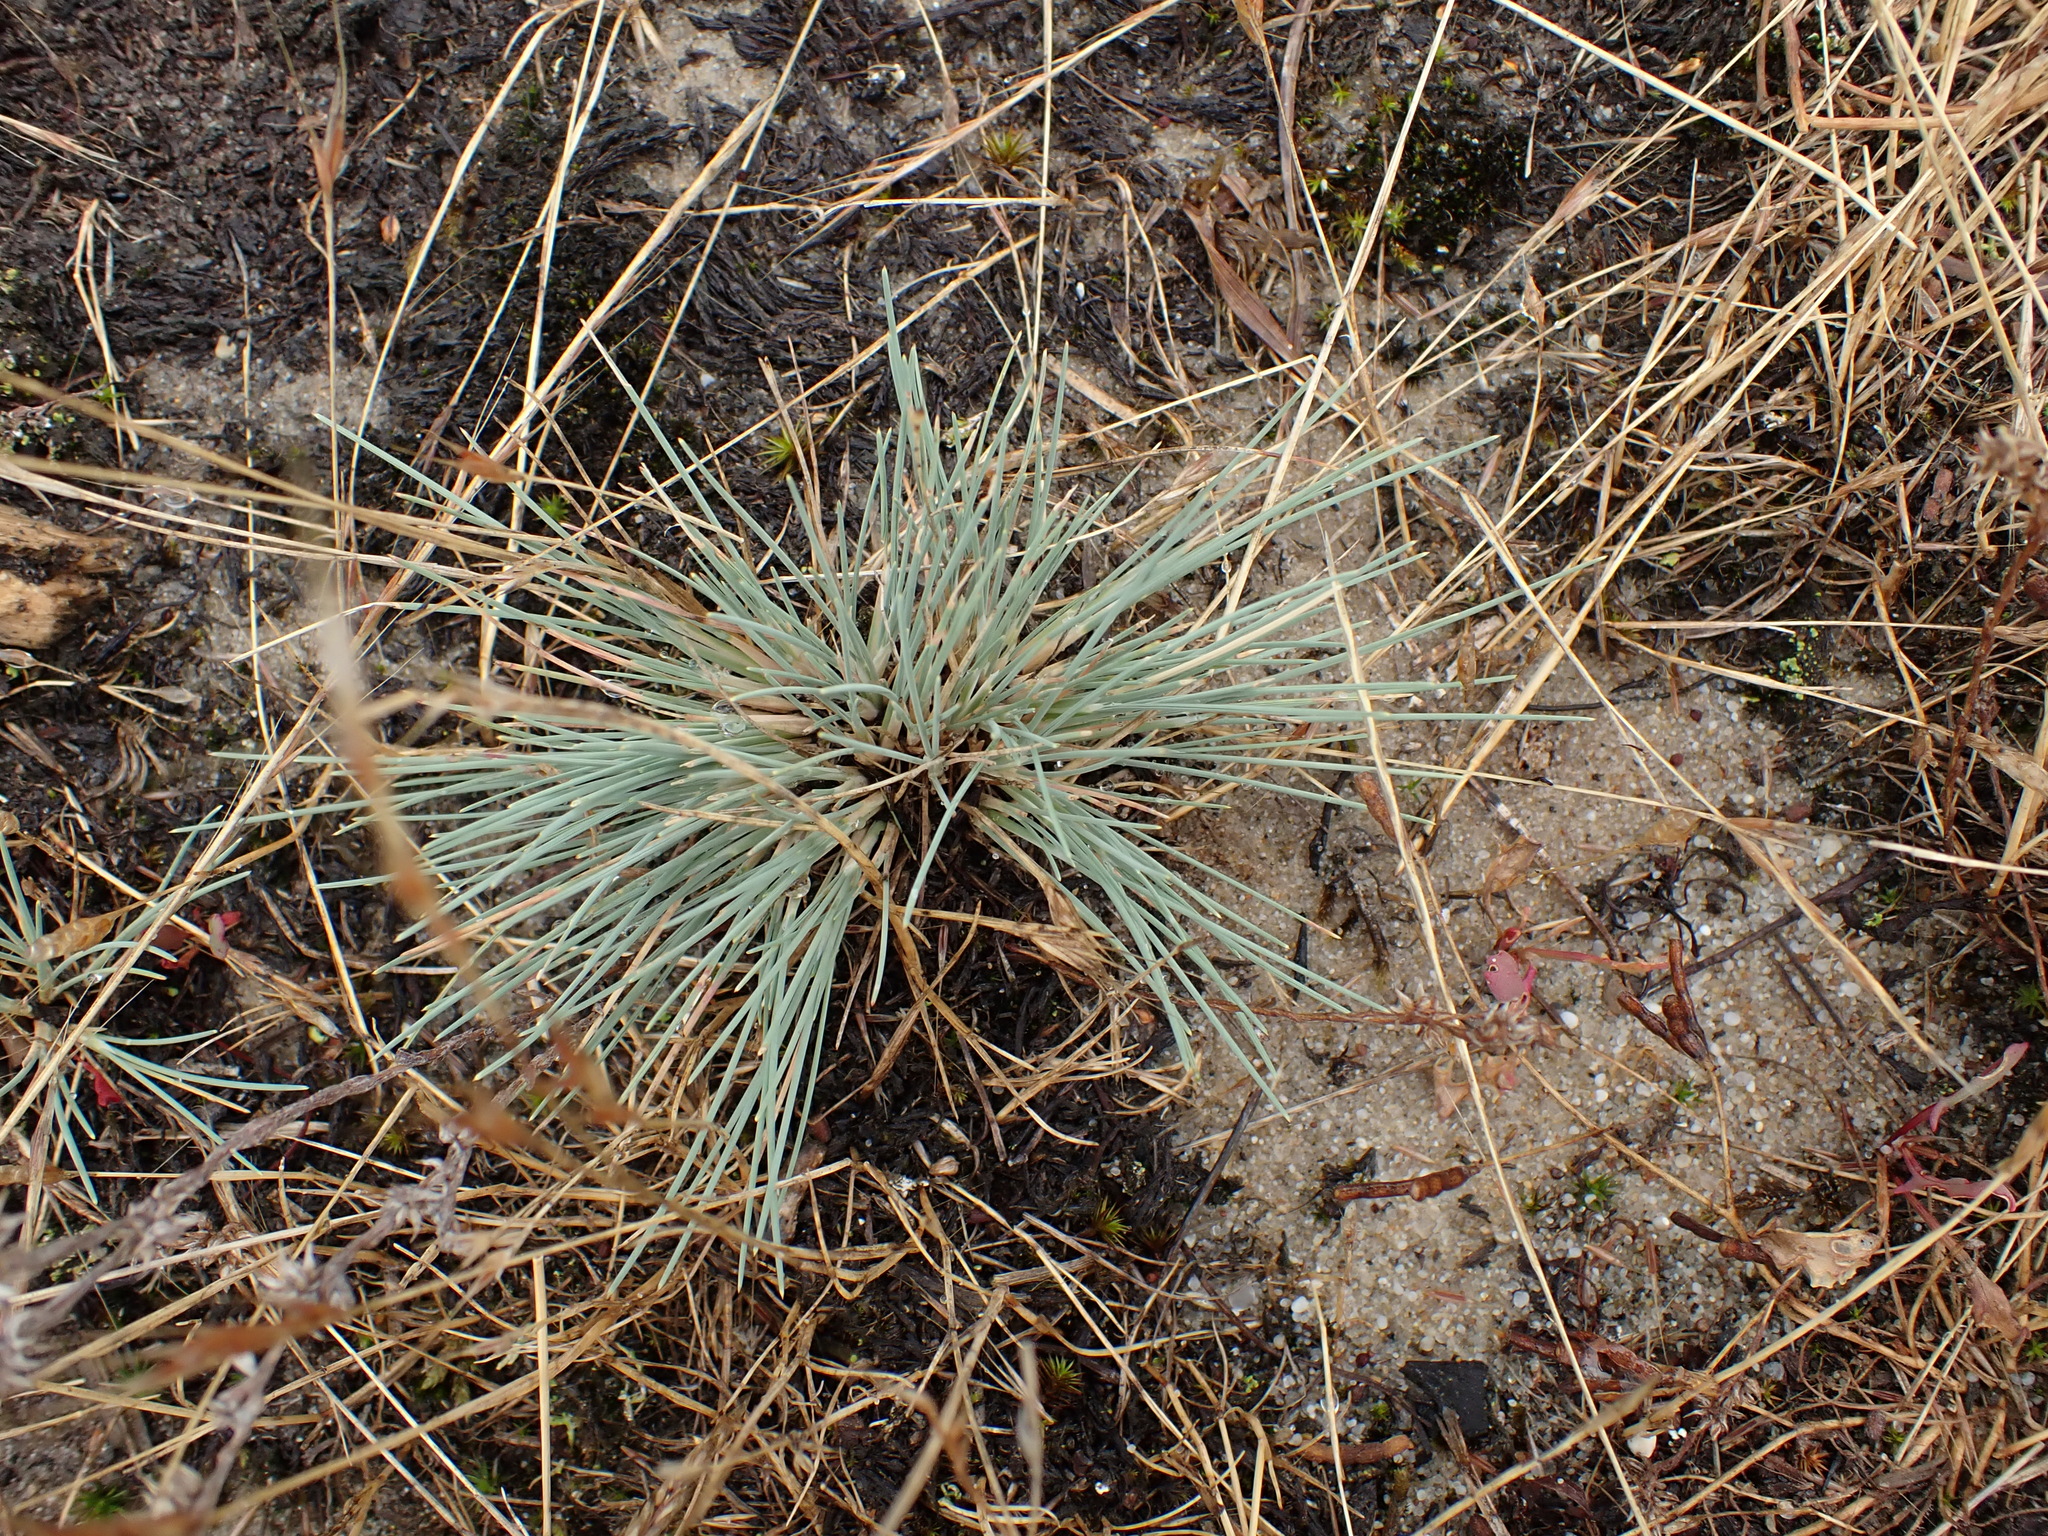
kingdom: Plantae
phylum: Tracheophyta
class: Liliopsida
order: Poales
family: Poaceae
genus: Corynephorus
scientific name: Corynephorus canescens
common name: Grey hair-grass
